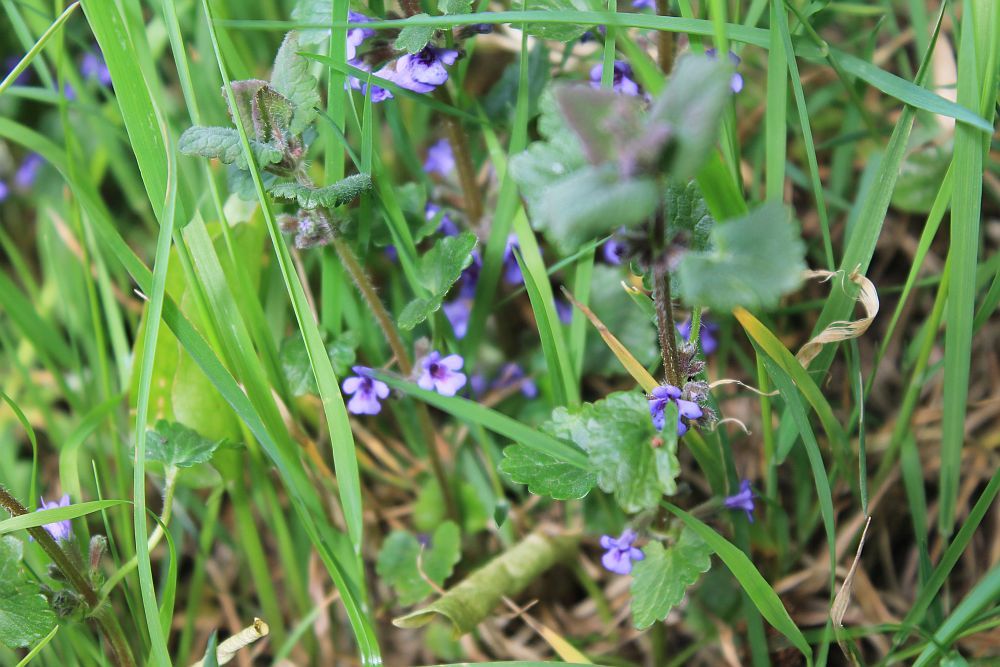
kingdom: Plantae
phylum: Tracheophyta
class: Magnoliopsida
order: Lamiales
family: Lamiaceae
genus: Glechoma
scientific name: Glechoma hederacea
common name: Ground ivy
